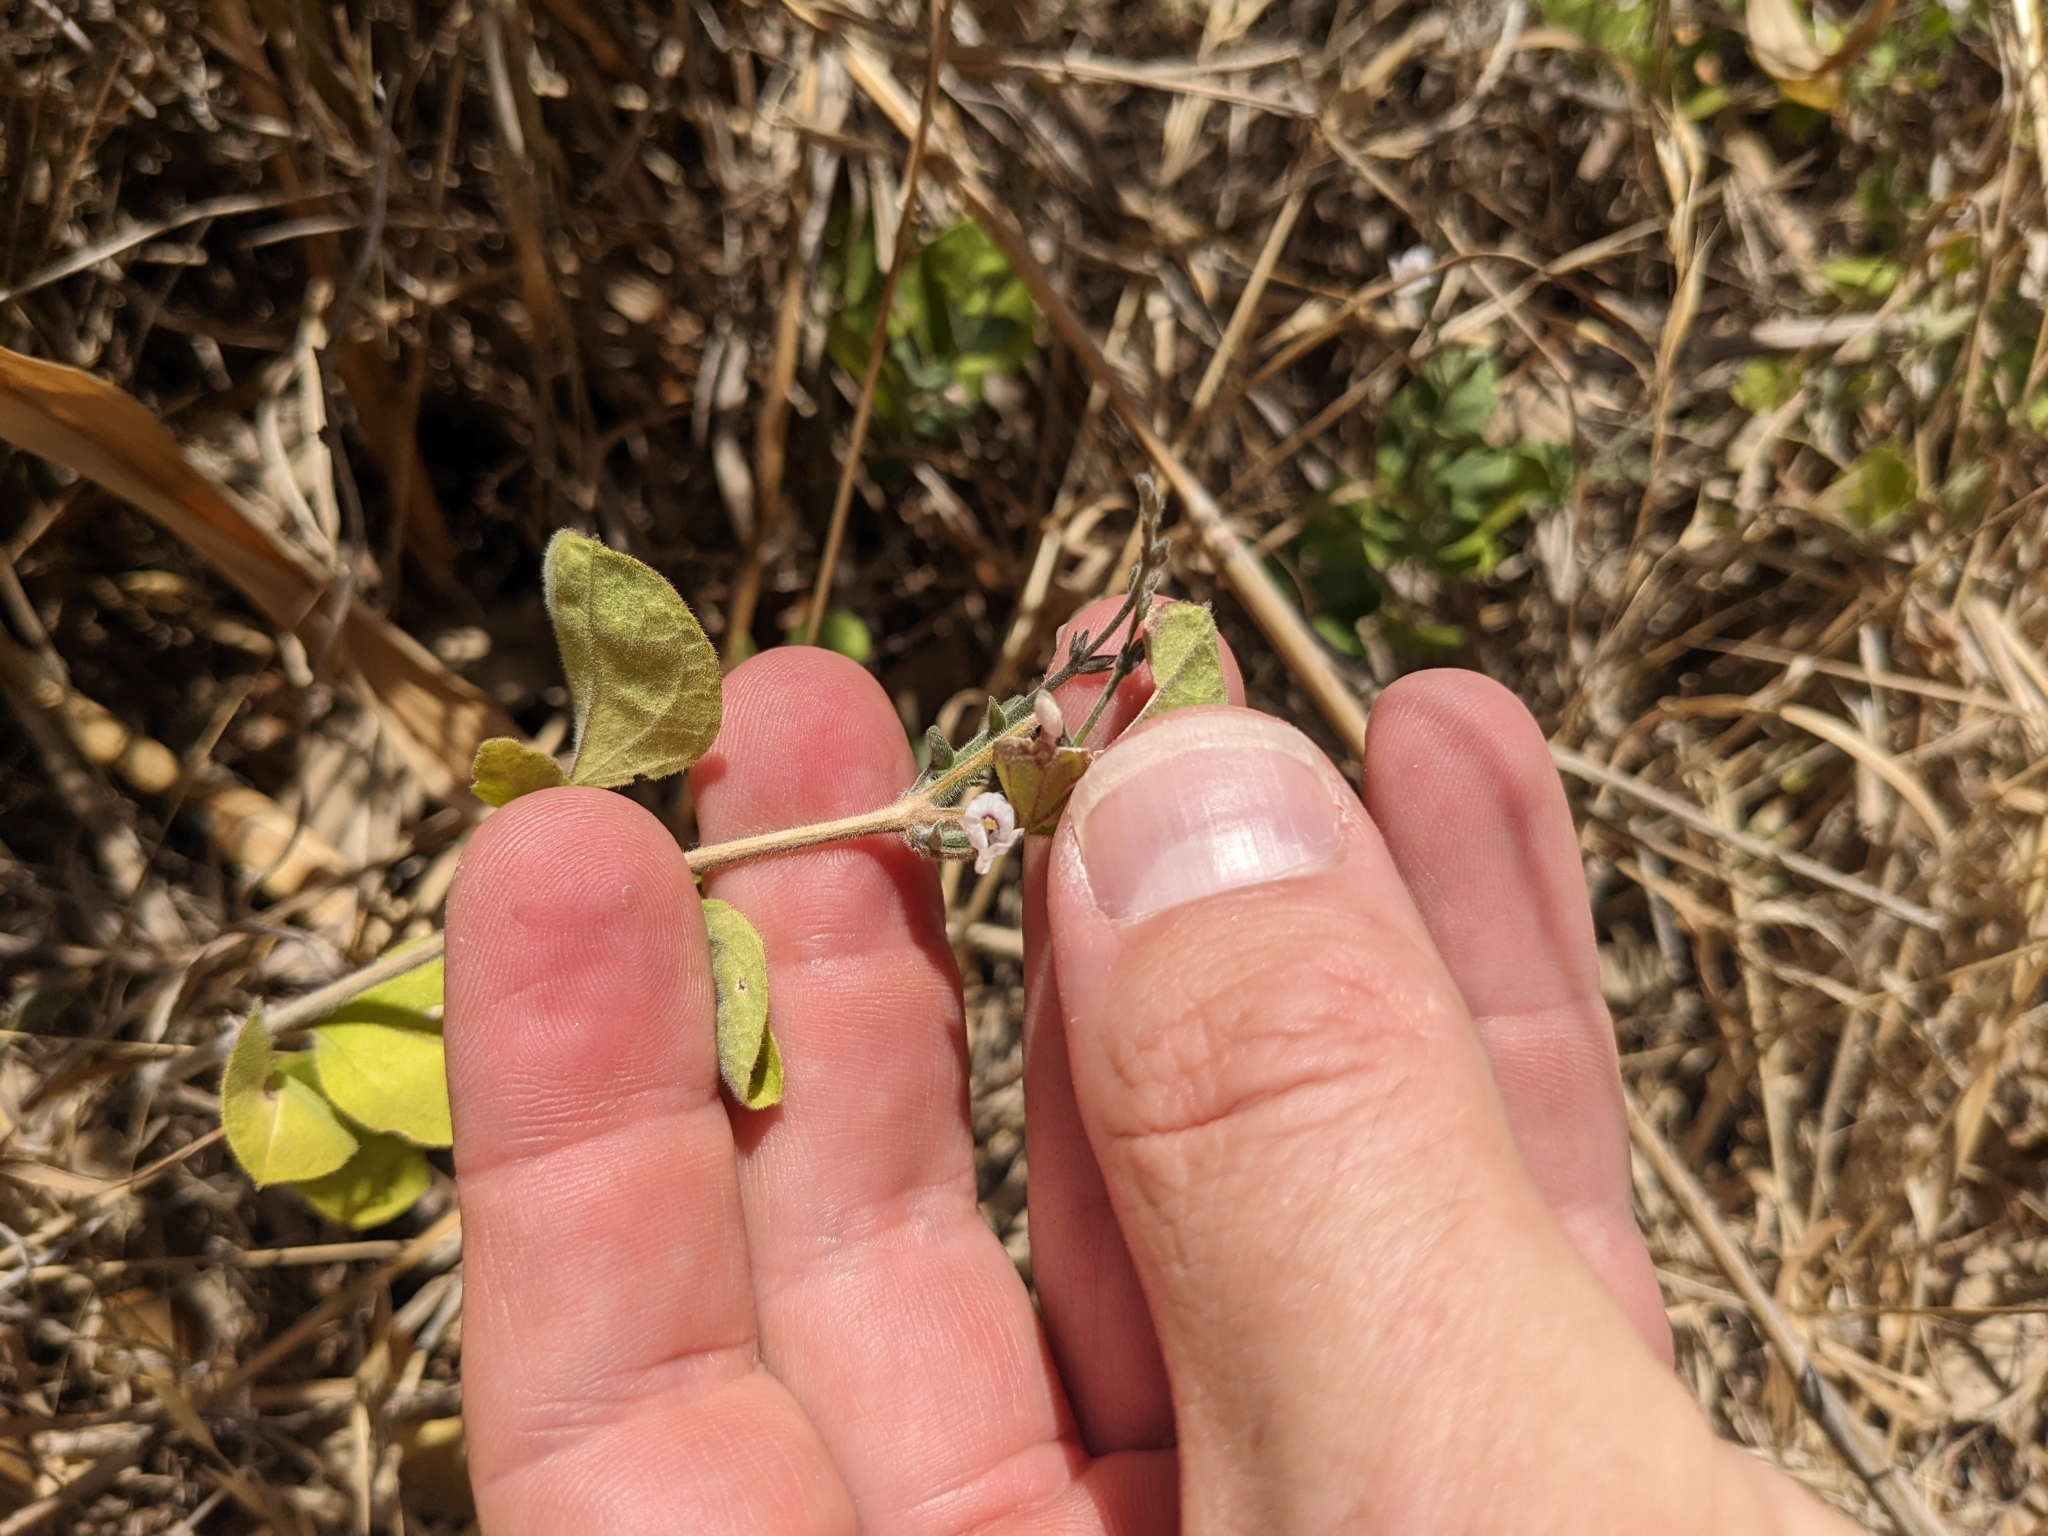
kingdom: Plantae
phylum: Tracheophyta
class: Magnoliopsida
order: Lamiales
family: Acanthaceae
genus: Carlowrightia
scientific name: Carlowrightia torreyana
